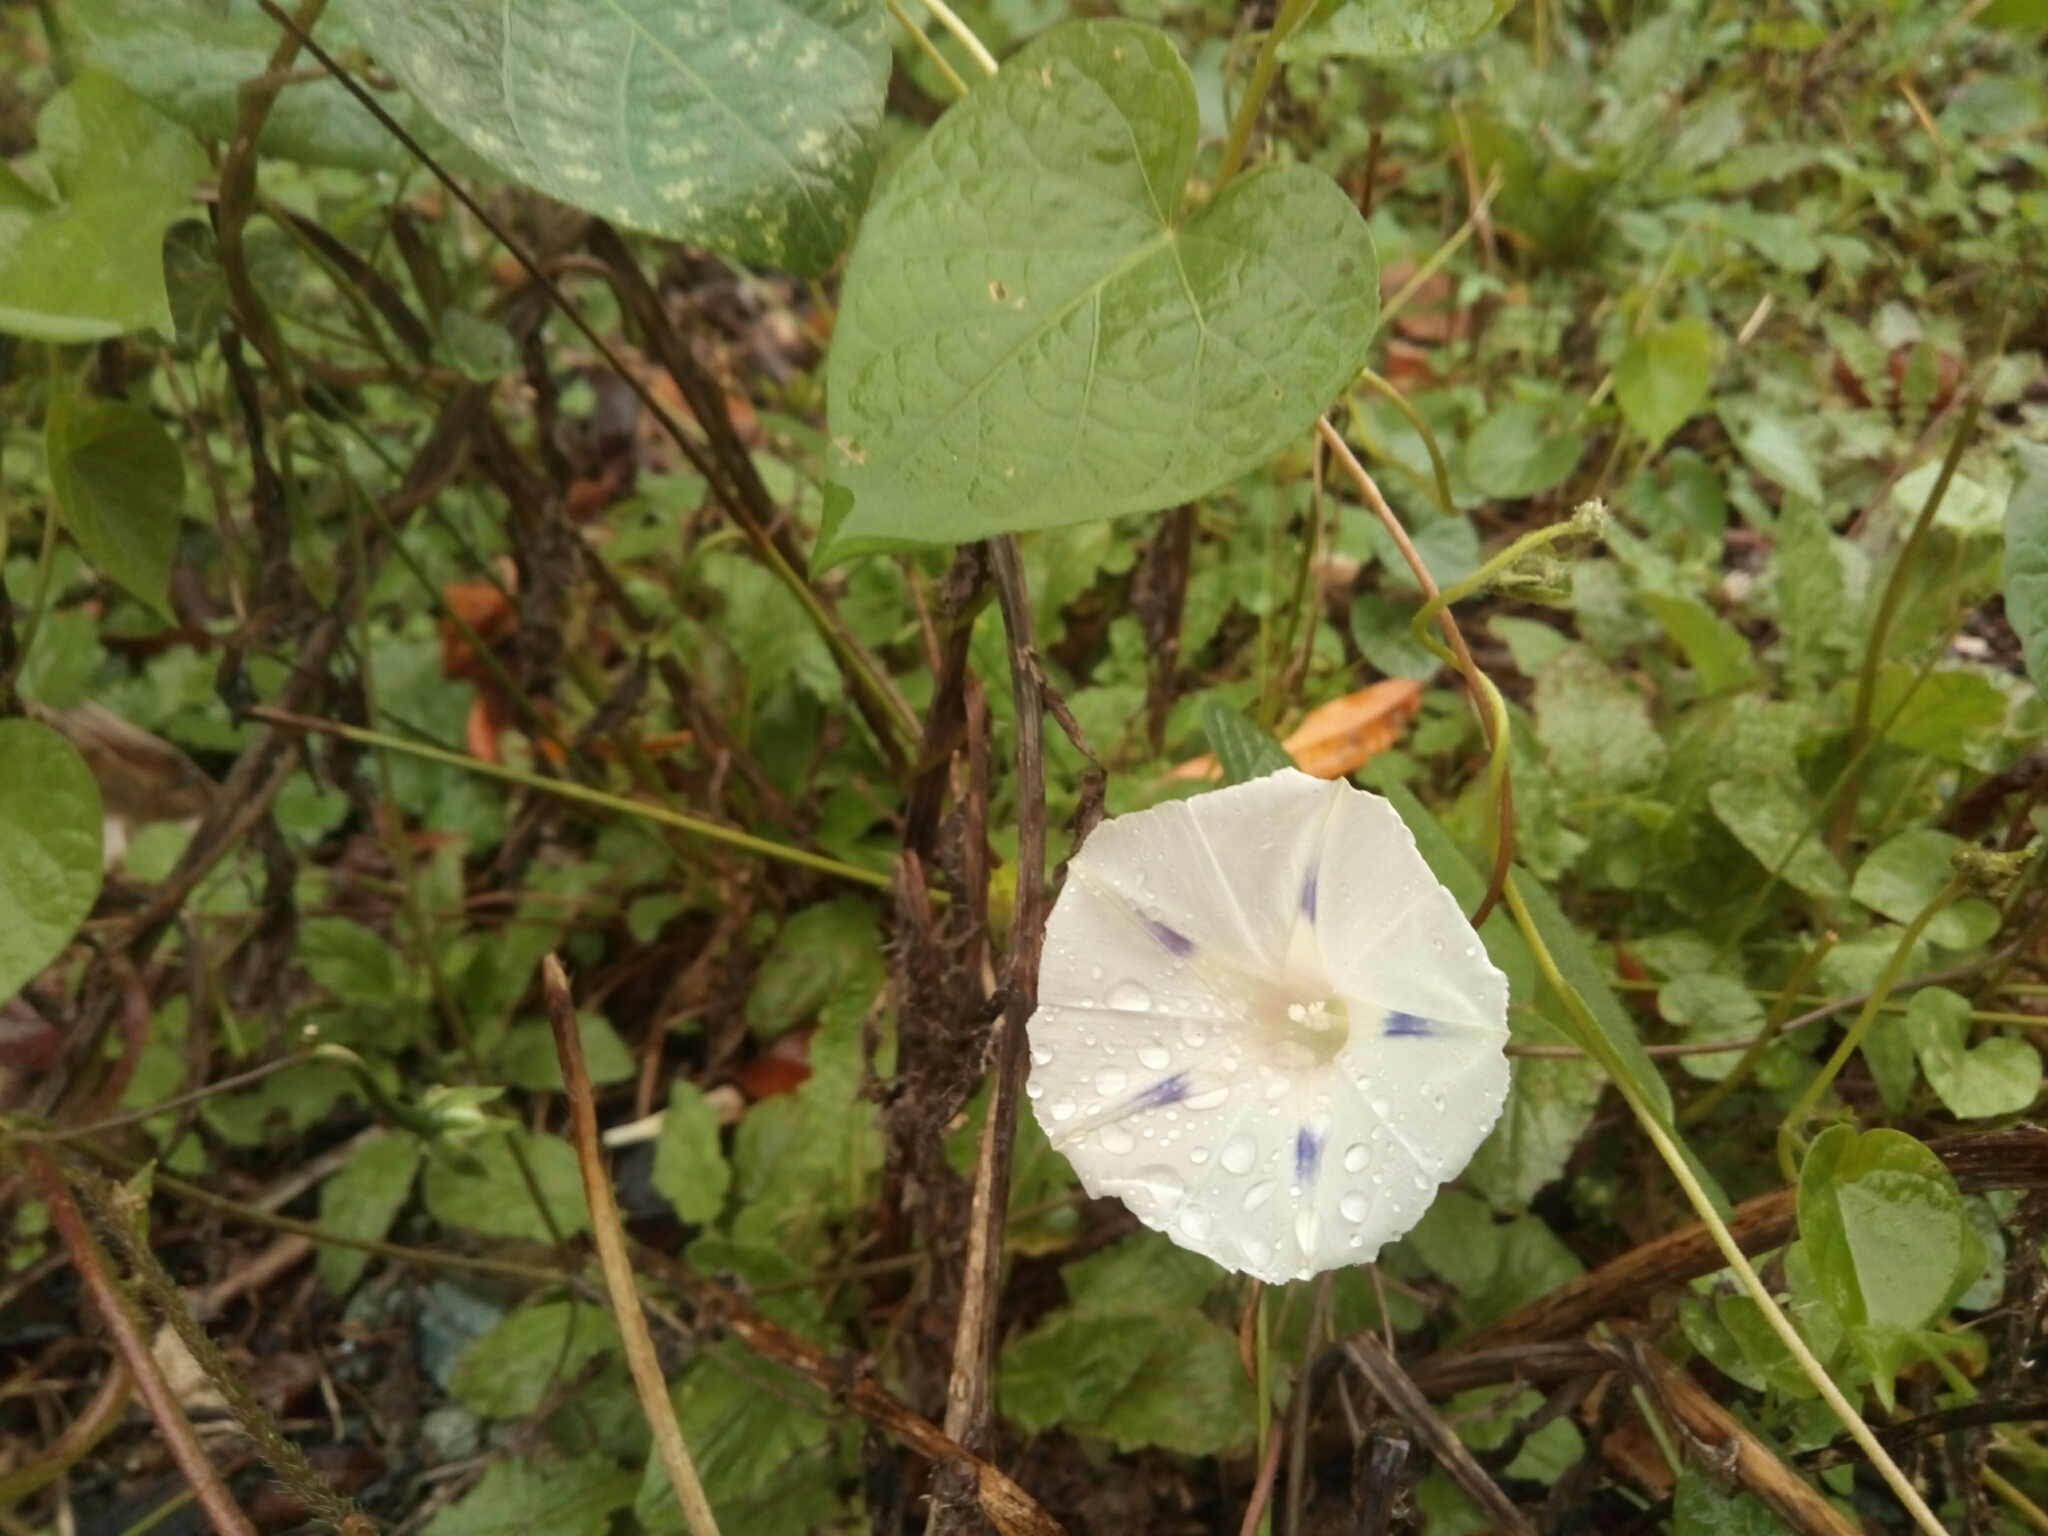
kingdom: Plantae
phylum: Tracheophyta
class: Magnoliopsida
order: Solanales
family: Convolvulaceae
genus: Ipomoea
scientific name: Ipomoea purpurea
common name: Common morning-glory
